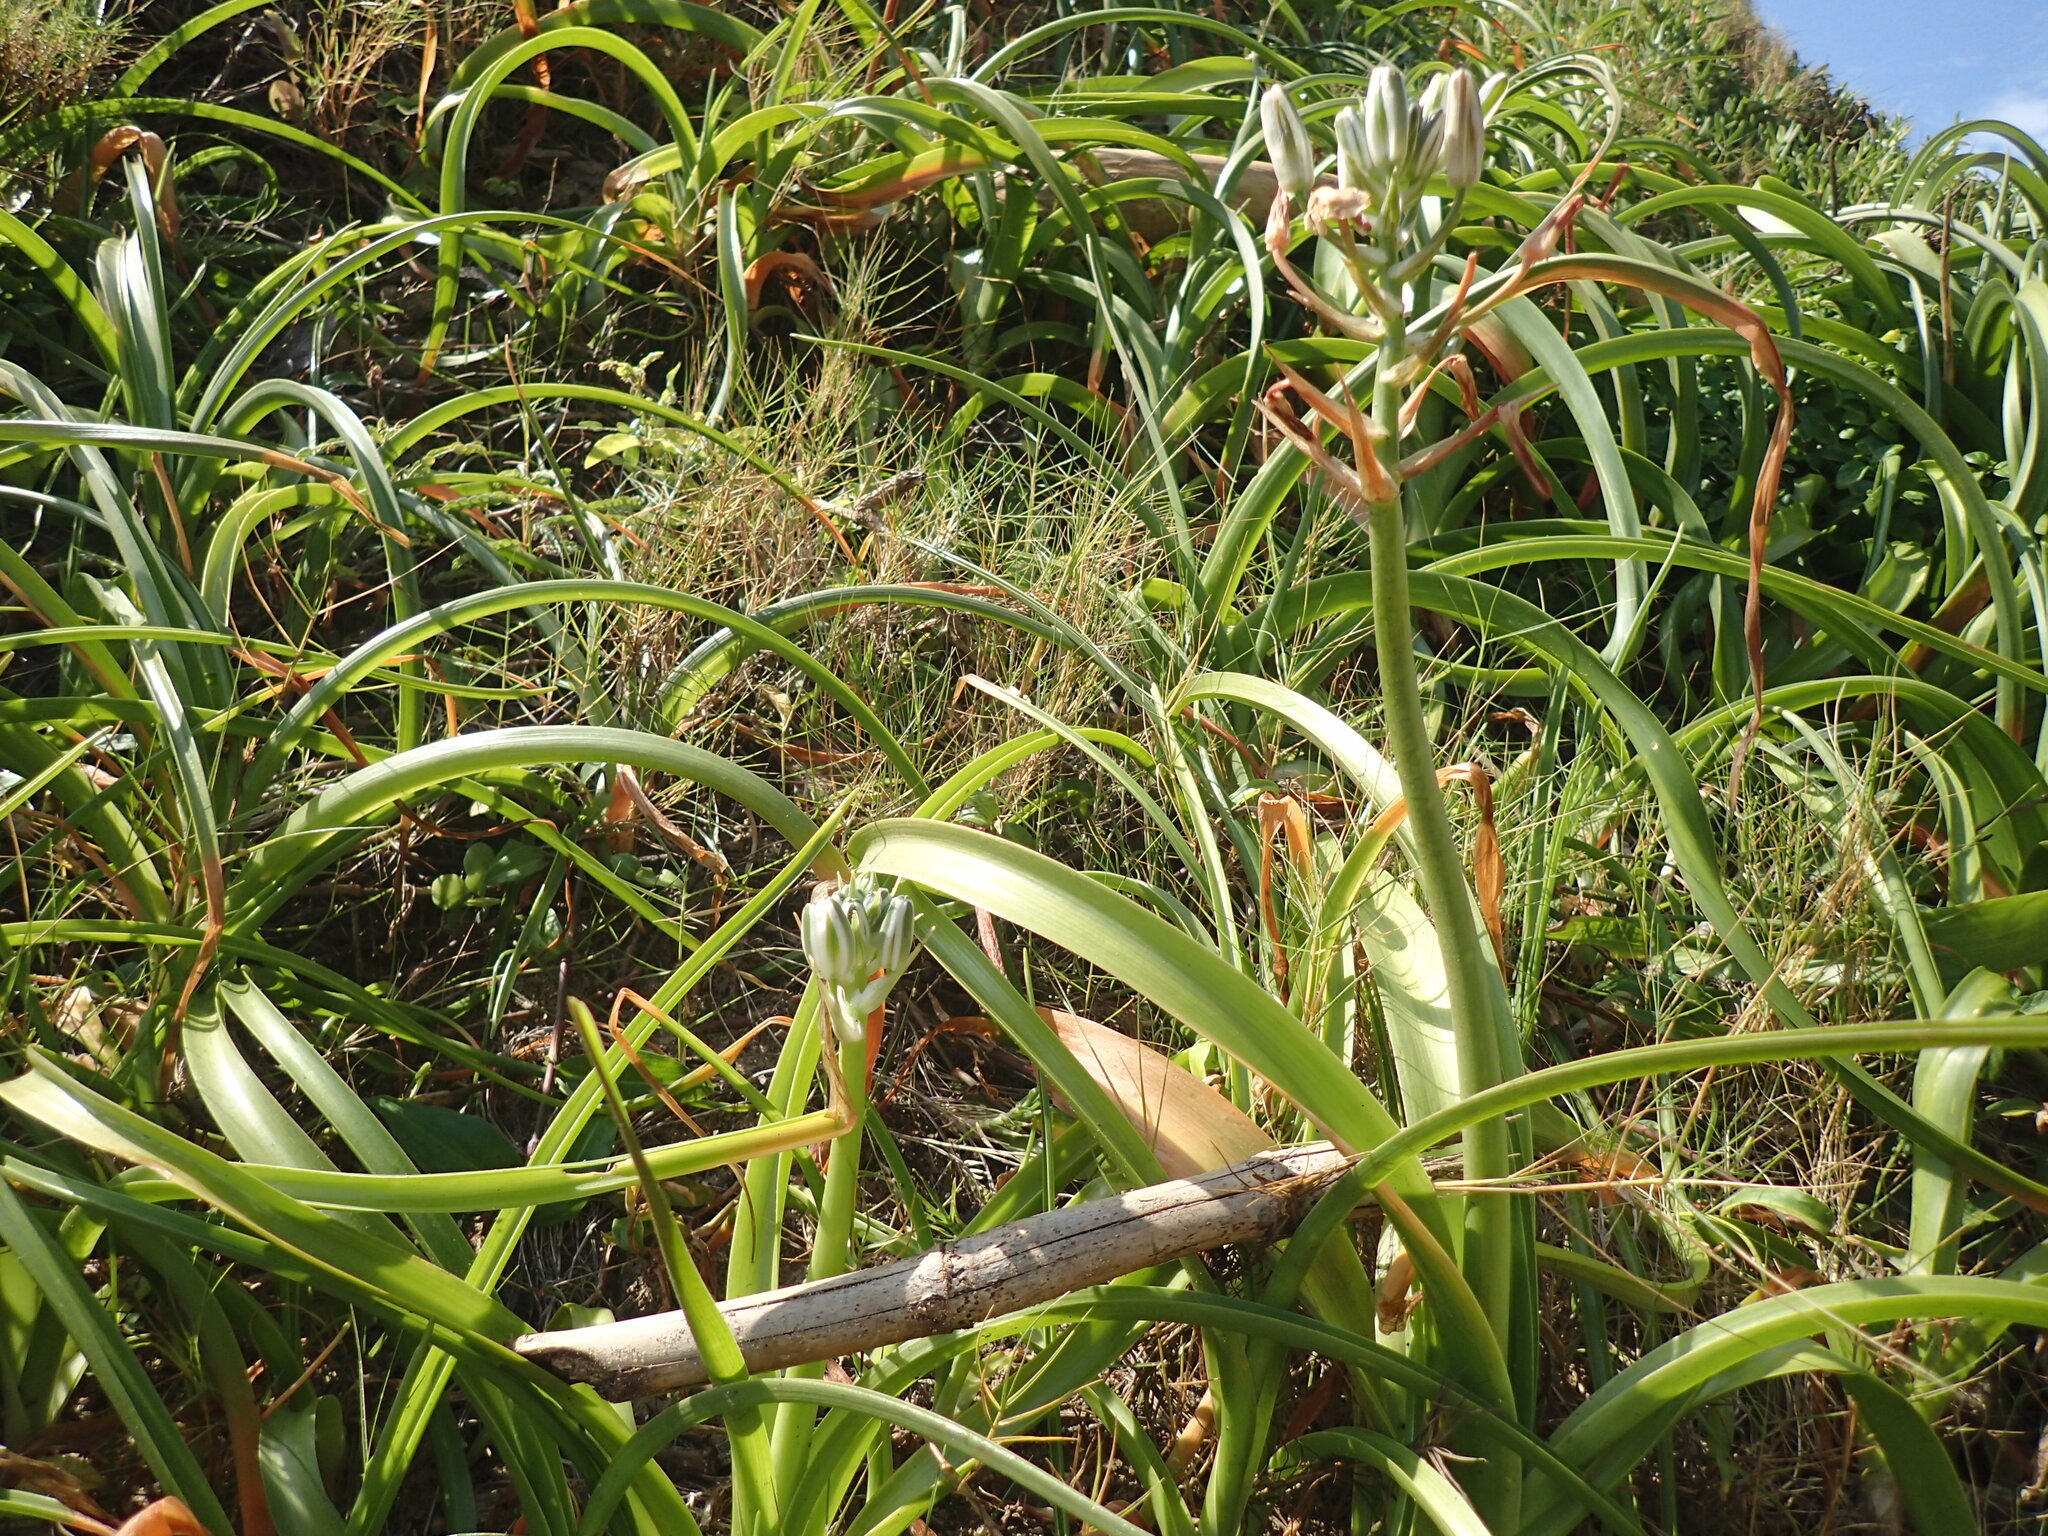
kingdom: Plantae
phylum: Tracheophyta
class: Liliopsida
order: Asparagales
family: Asparagaceae
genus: Albuca
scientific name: Albuca nelsonii
